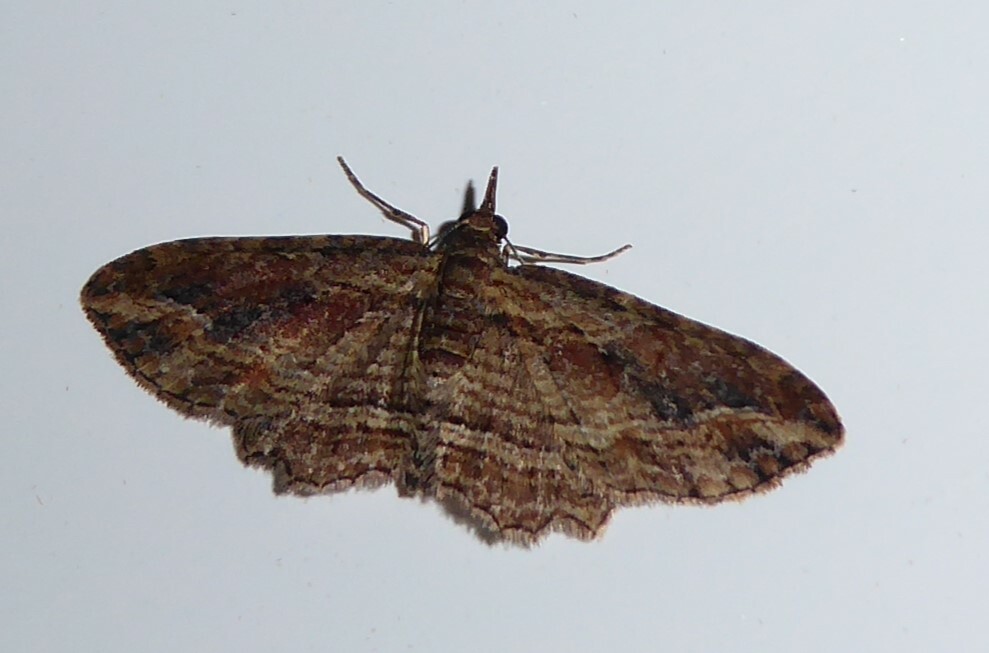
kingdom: Animalia
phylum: Arthropoda
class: Insecta
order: Lepidoptera
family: Geometridae
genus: Chloroclystis
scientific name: Chloroclystis filata
